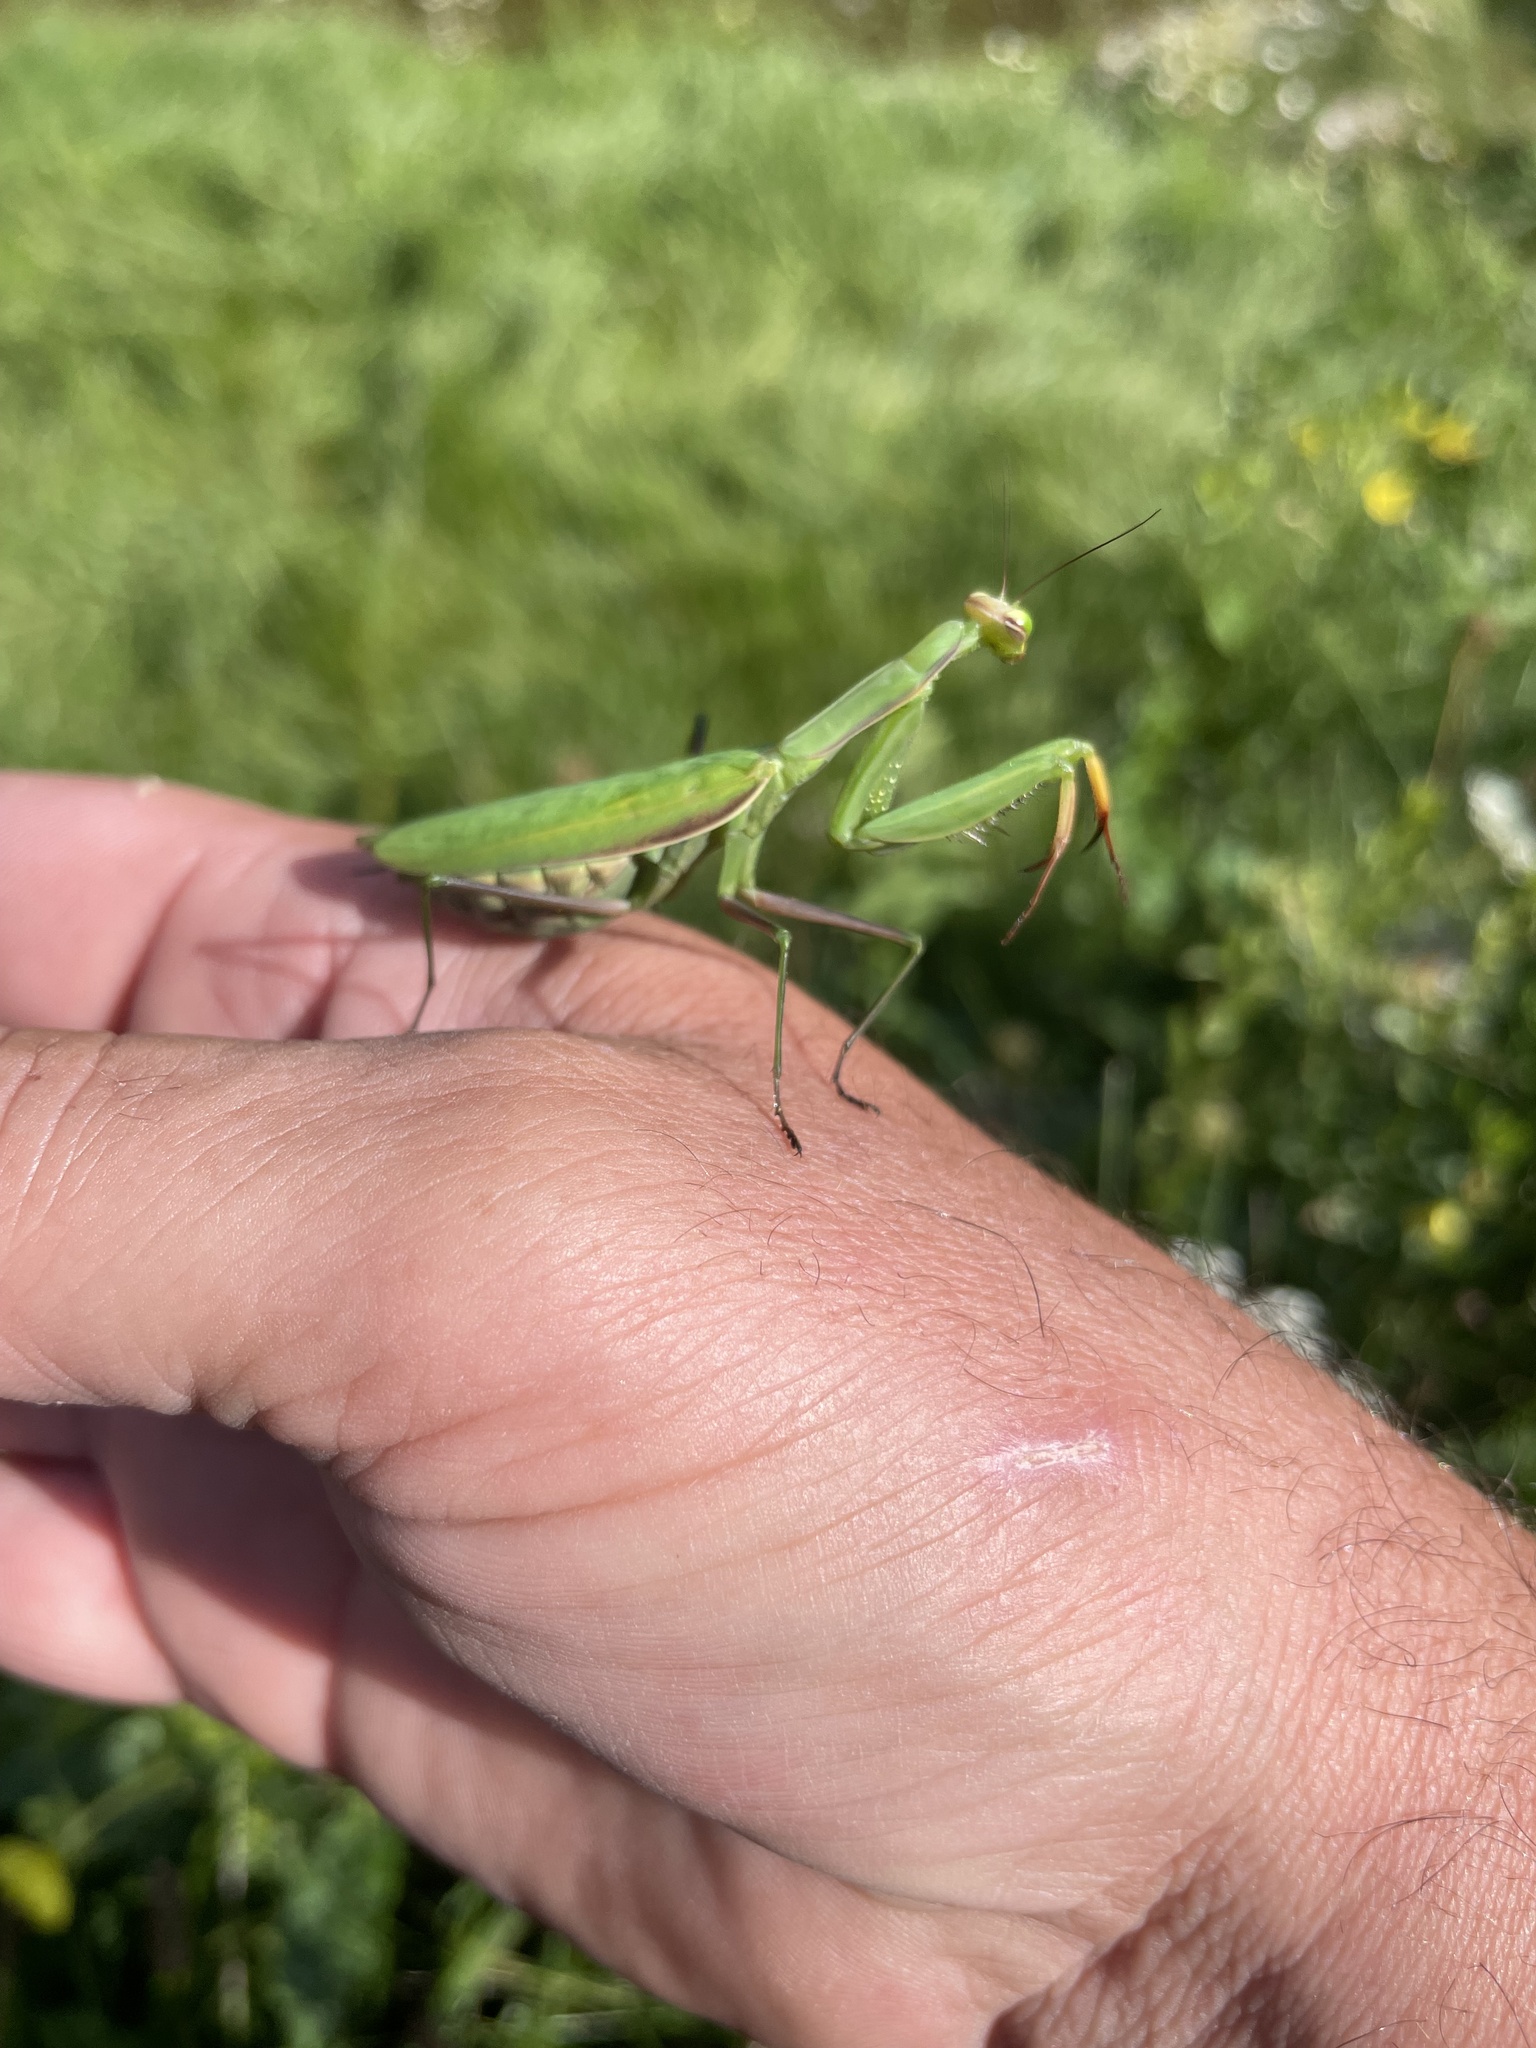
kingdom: Animalia
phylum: Arthropoda
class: Insecta
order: Mantodea
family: Mantidae
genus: Mantis
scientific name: Mantis religiosa
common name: Praying mantis
